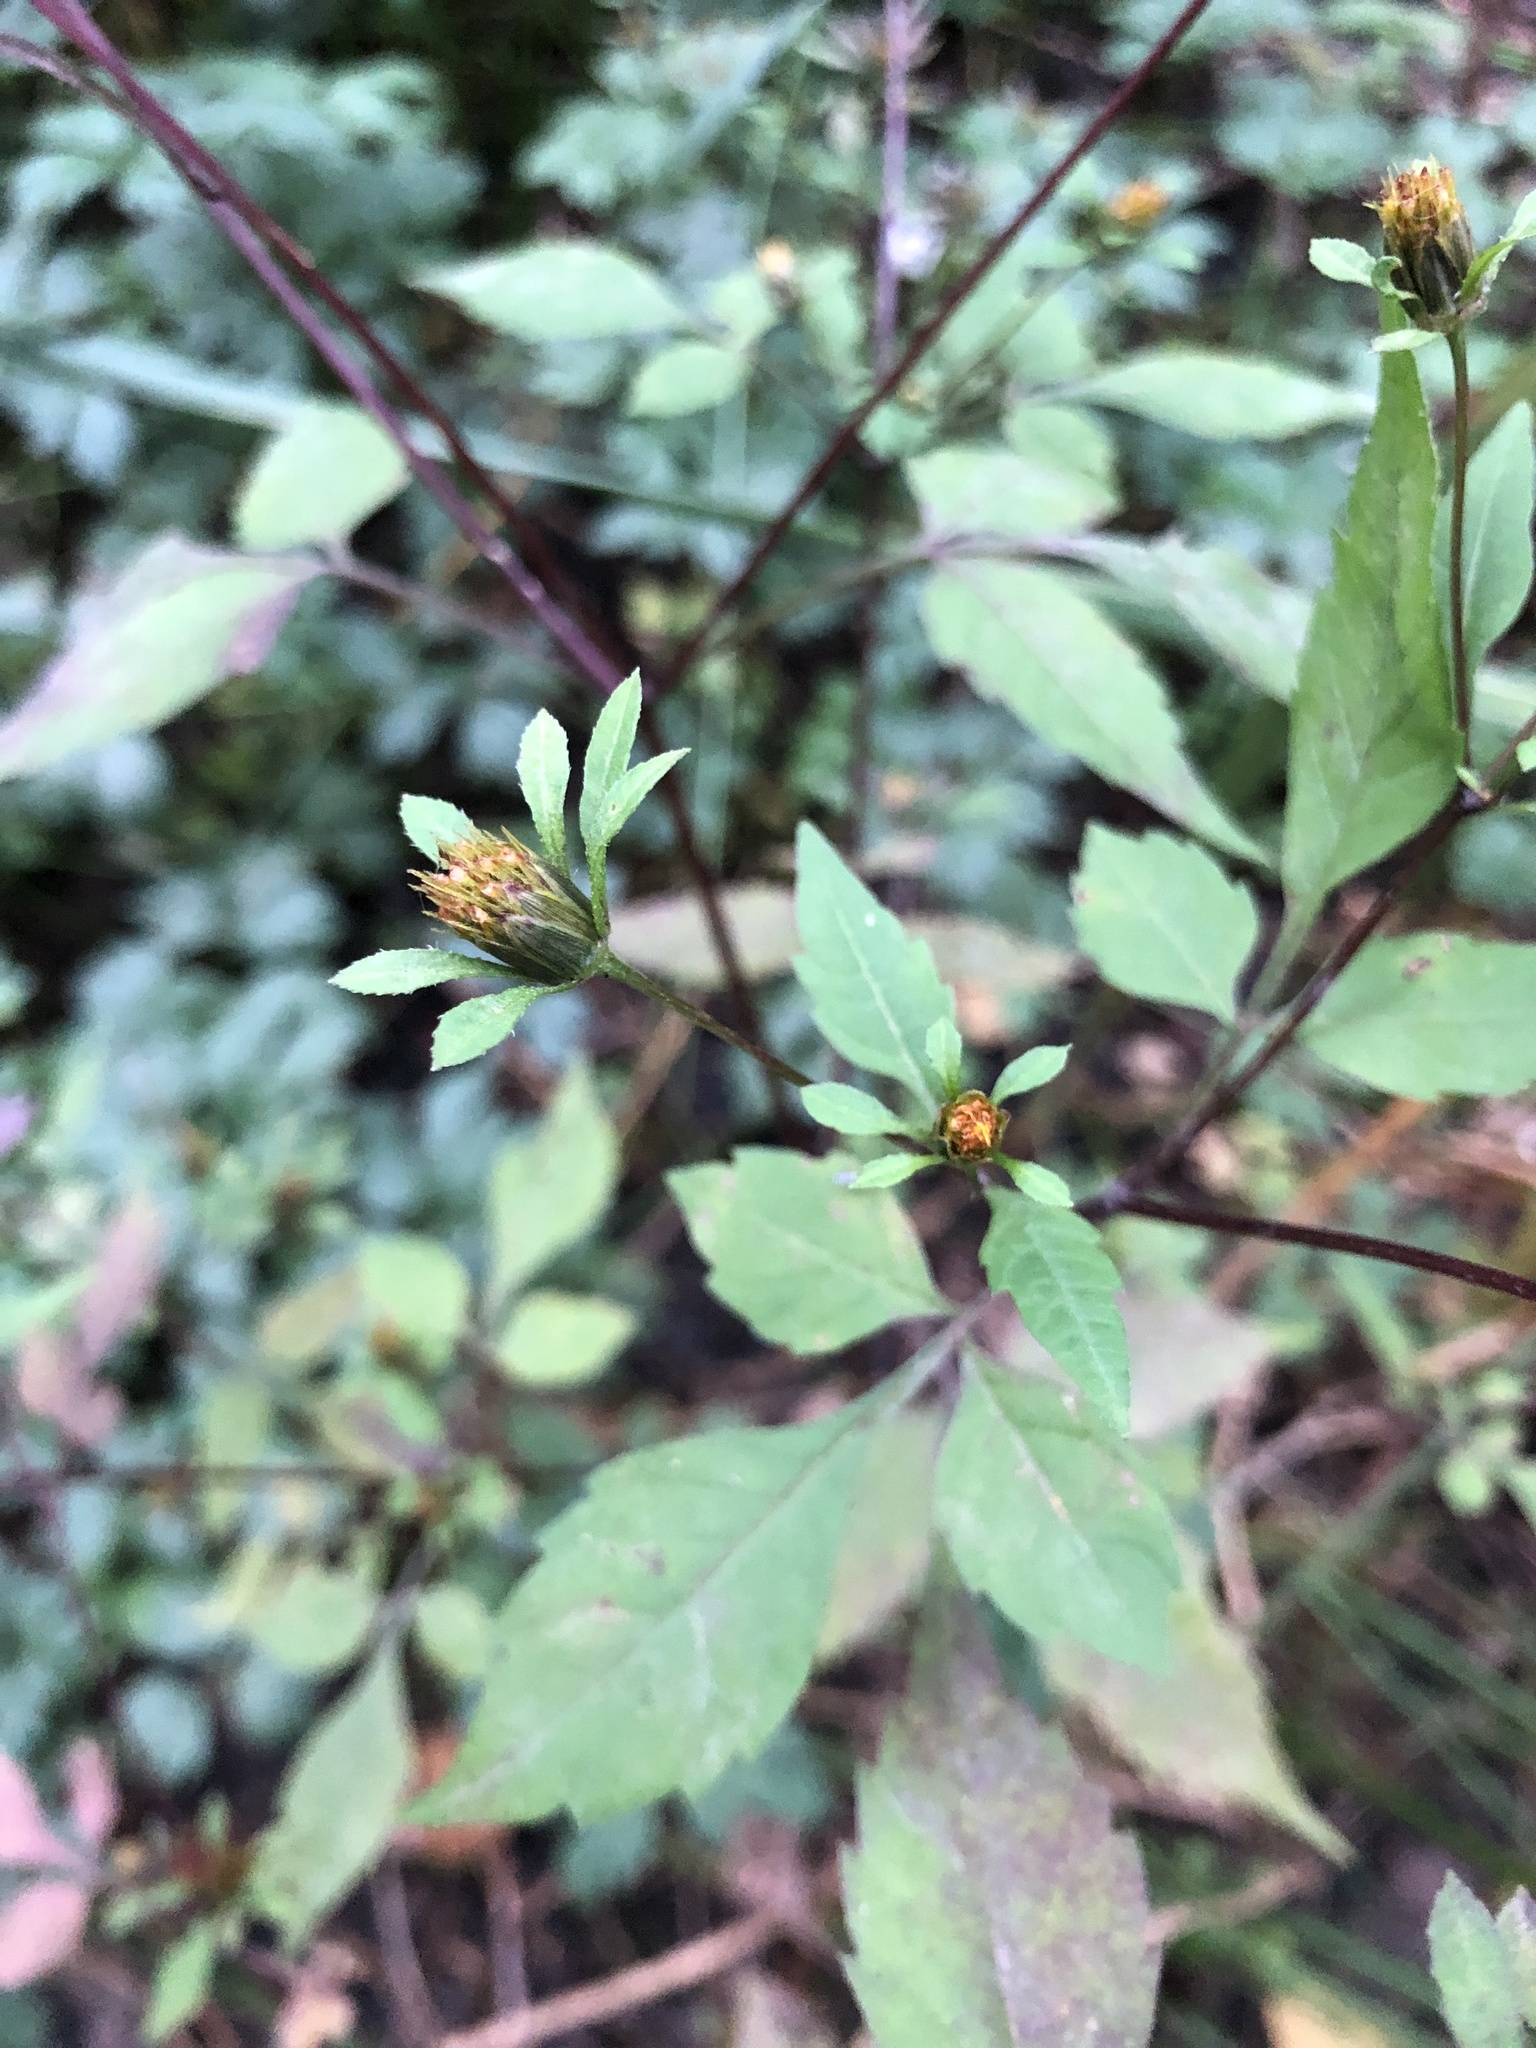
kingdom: Plantae
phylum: Tracheophyta
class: Magnoliopsida
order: Asterales
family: Asteraceae
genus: Bidens
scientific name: Bidens frondosa
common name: Beggarticks
